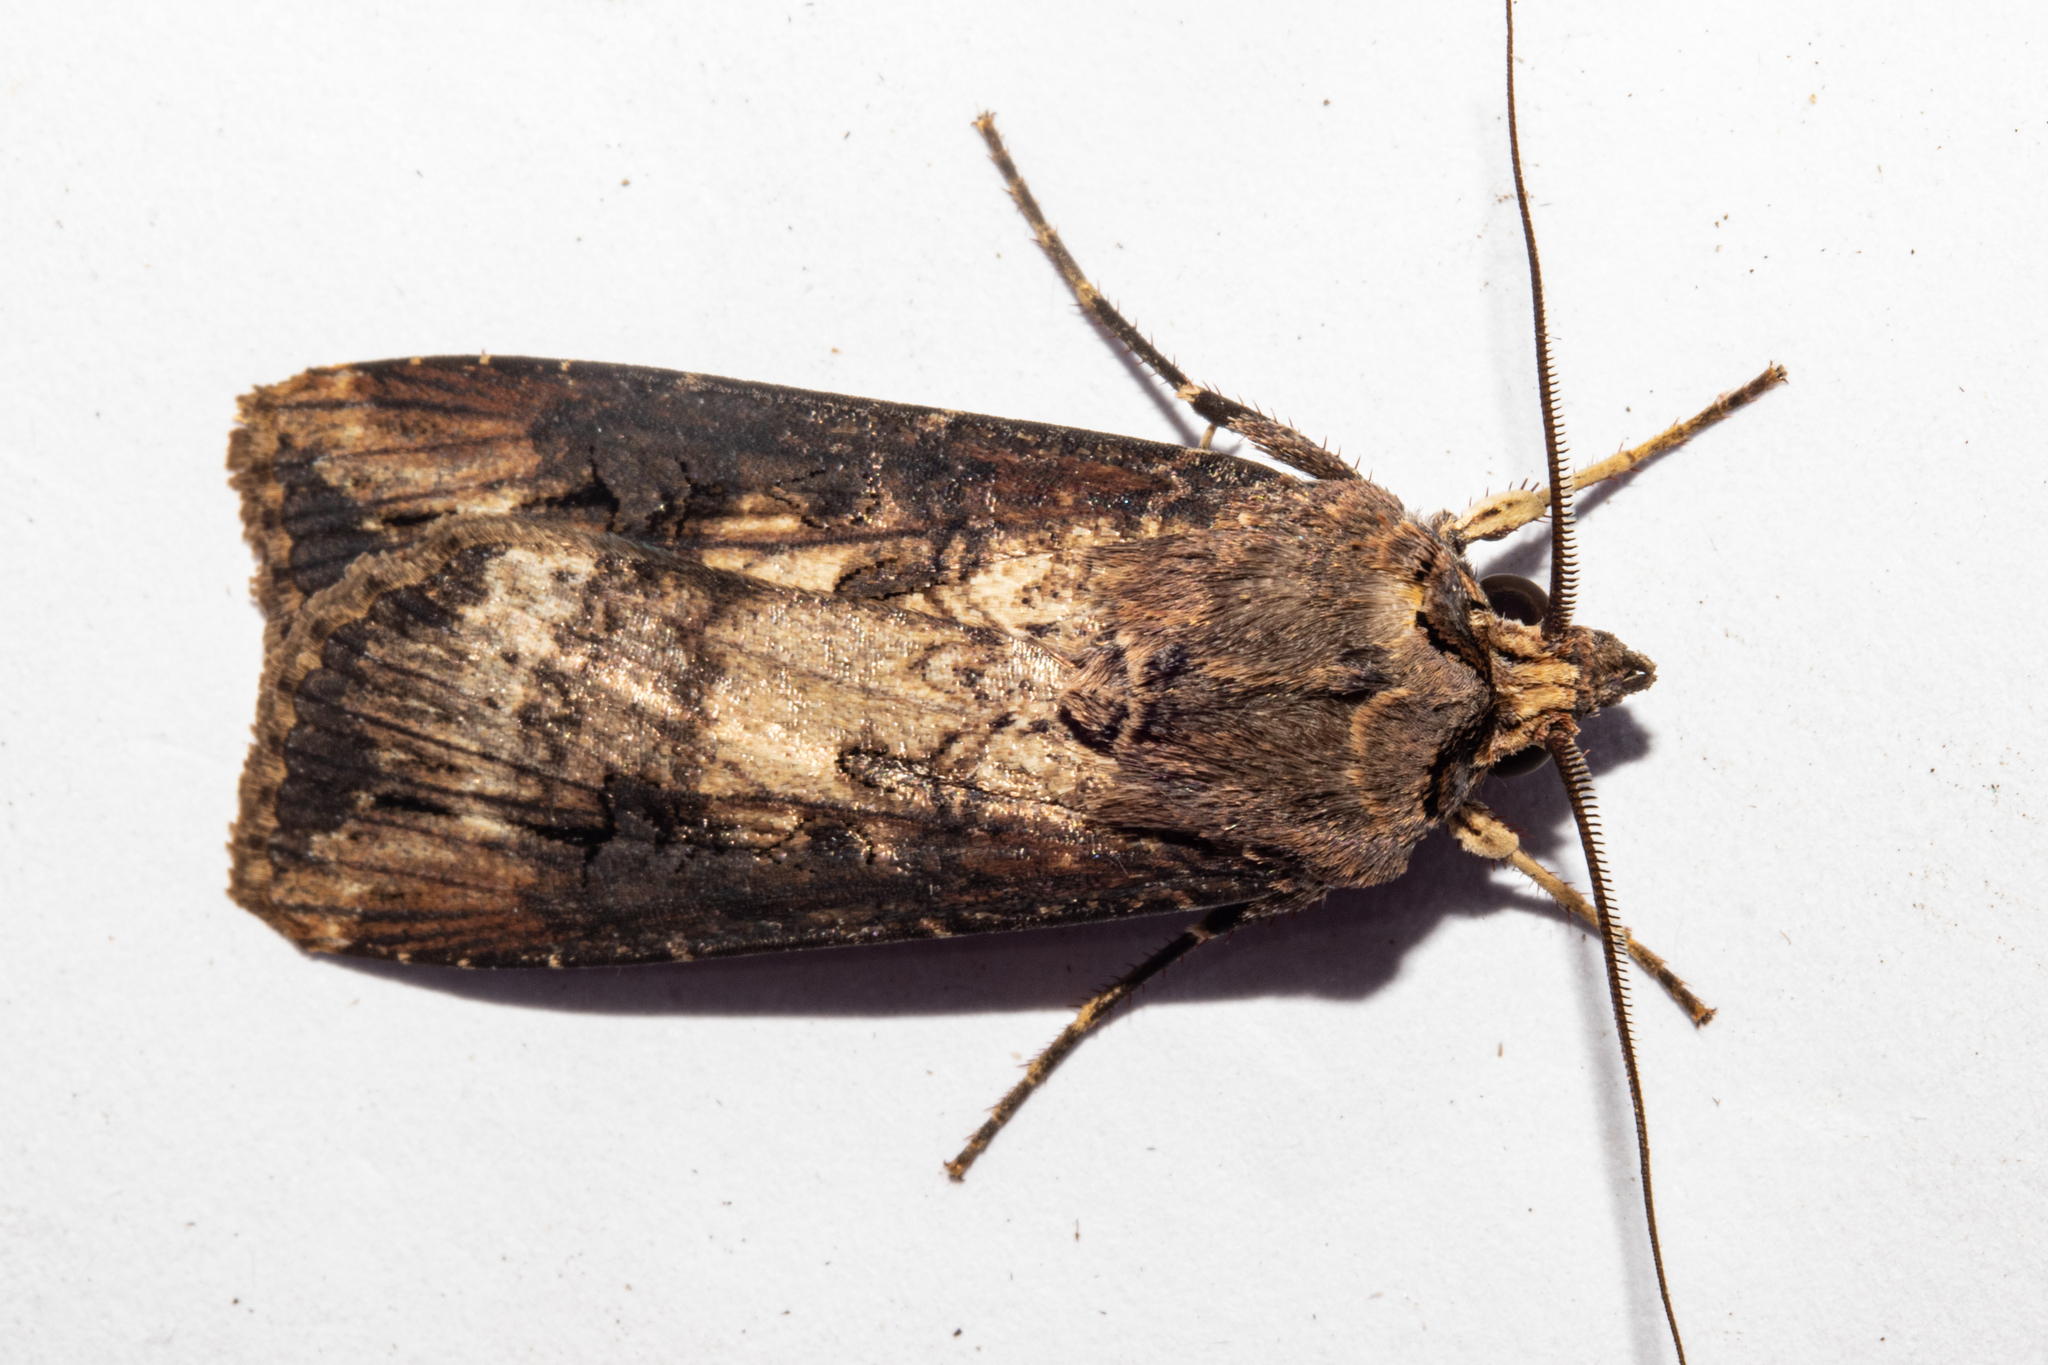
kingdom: Animalia
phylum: Arthropoda
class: Insecta
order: Lepidoptera
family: Noctuidae
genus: Agrotis
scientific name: Agrotis ipsilon
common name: Dark sword-grass
